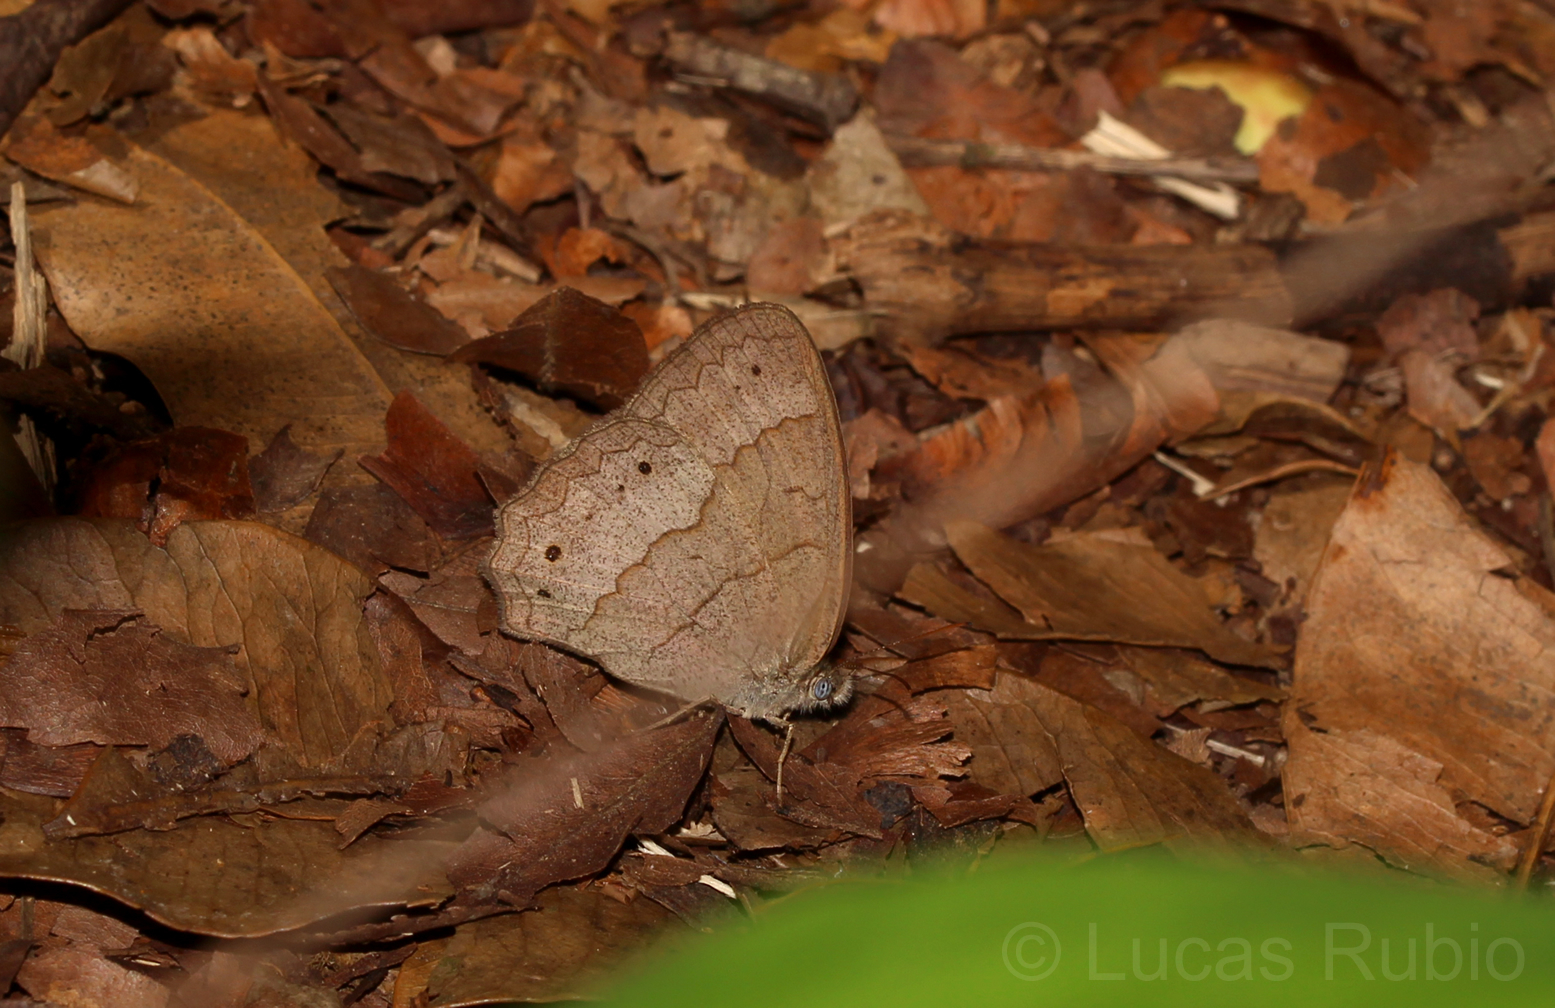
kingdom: Animalia
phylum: Arthropoda
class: Insecta
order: Lepidoptera
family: Nymphalidae
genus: Yphthimoides
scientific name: Yphthimoides ordinaria
